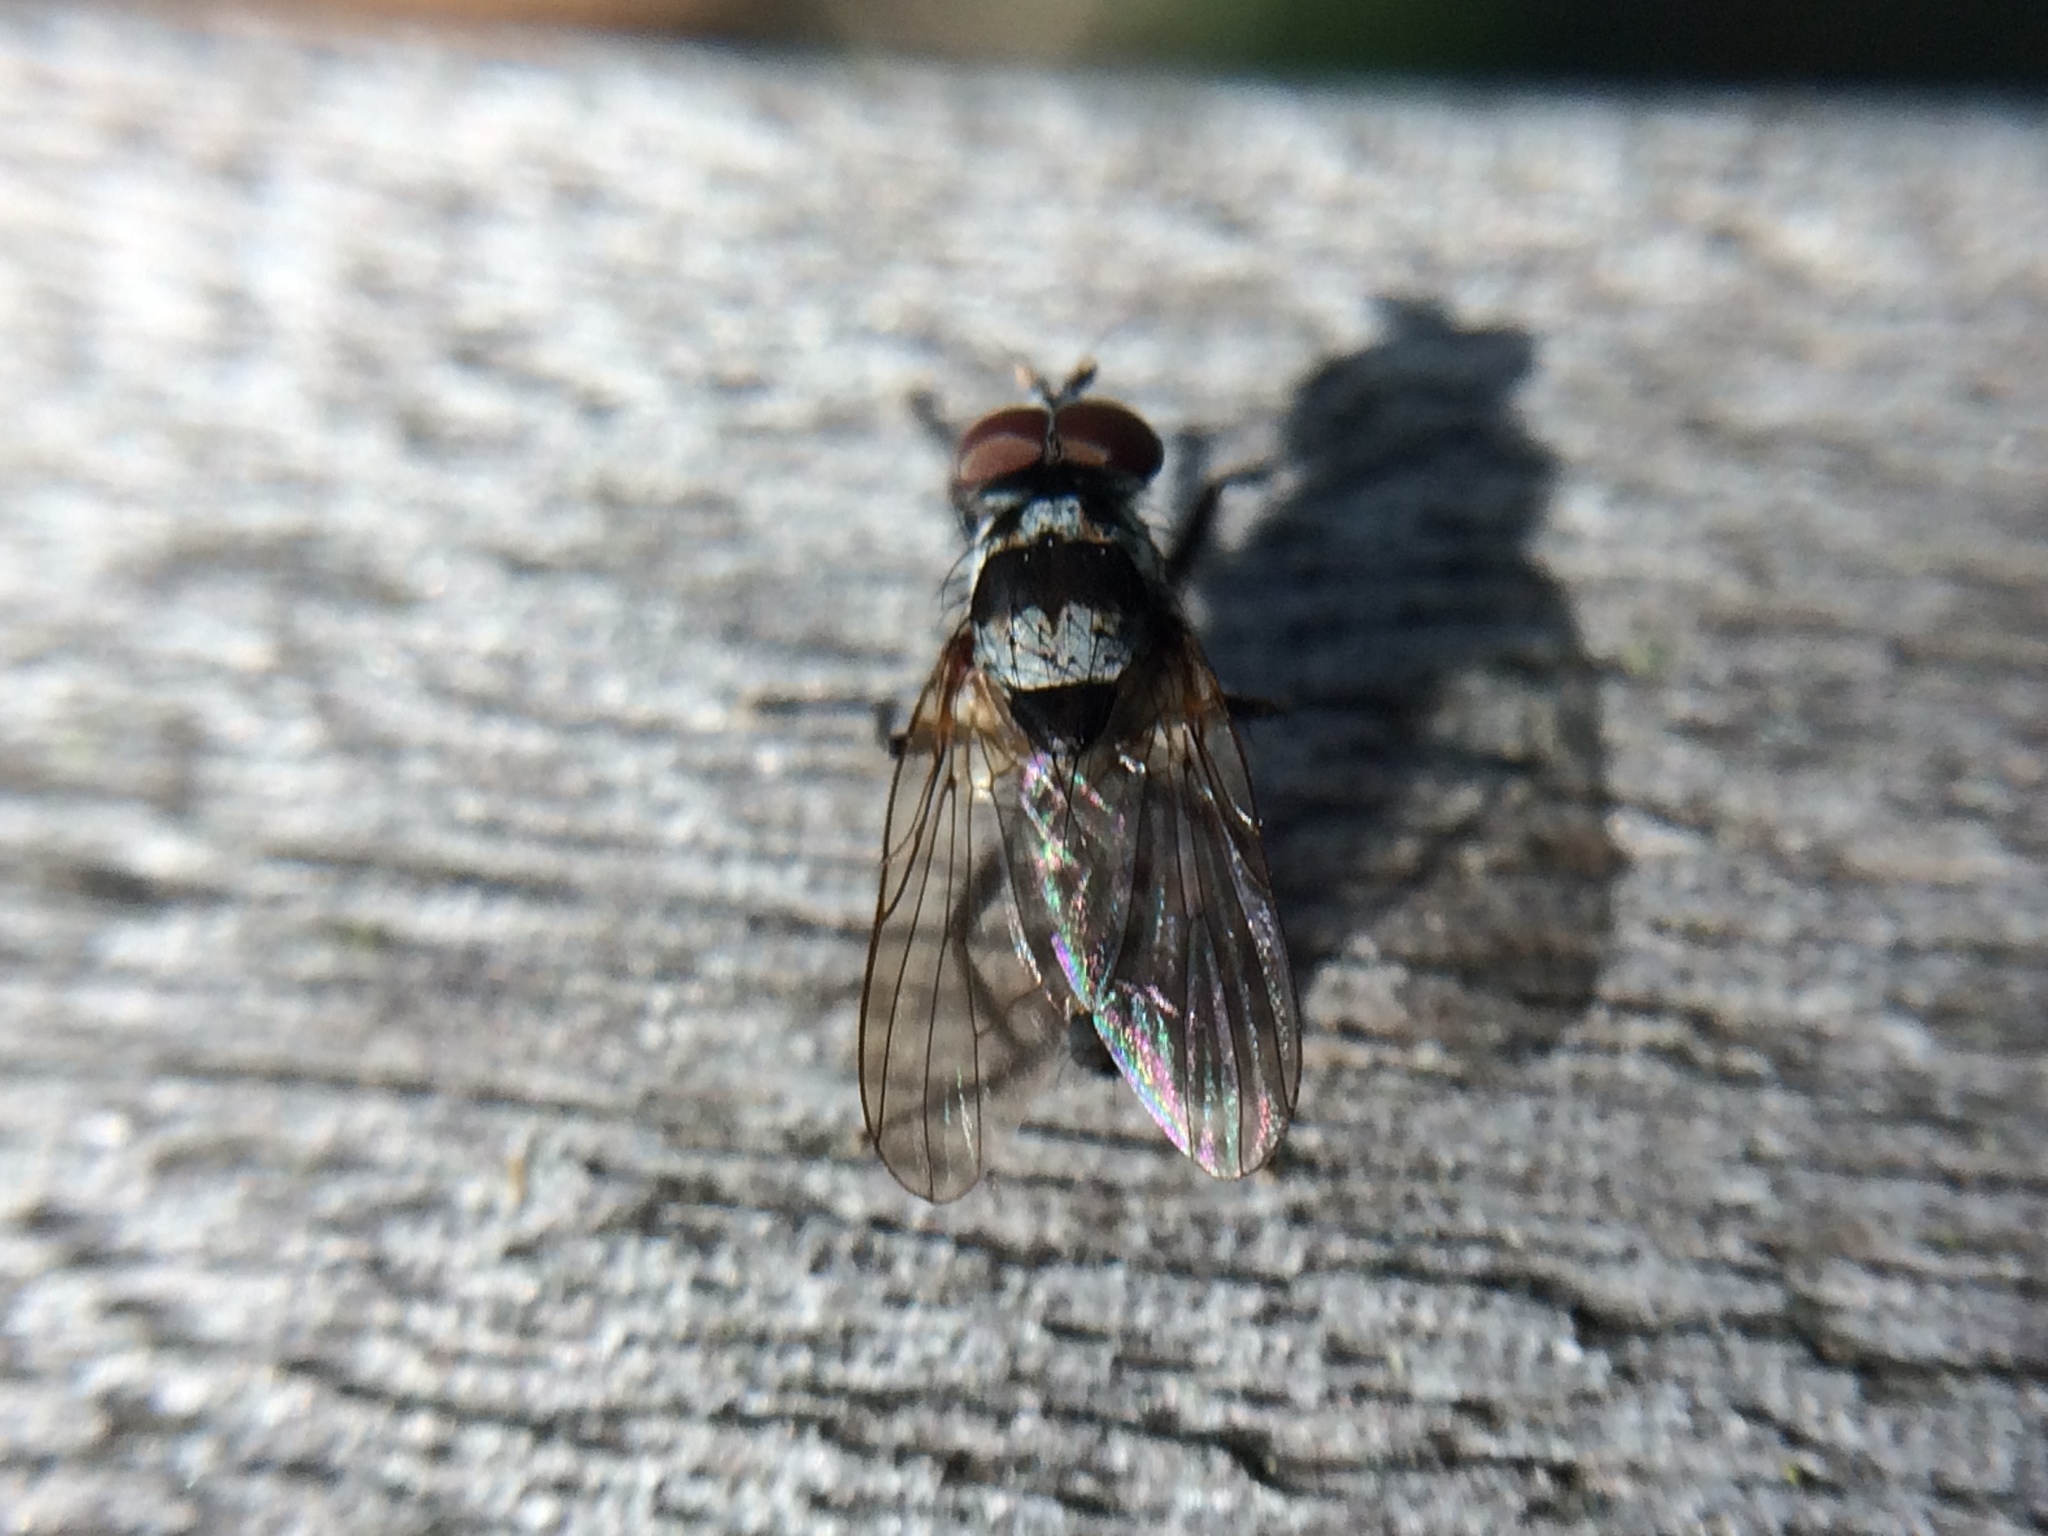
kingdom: Animalia
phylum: Arthropoda
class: Insecta
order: Diptera
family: Anthomyiidae
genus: Anthomyia
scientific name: Anthomyia oculifera
